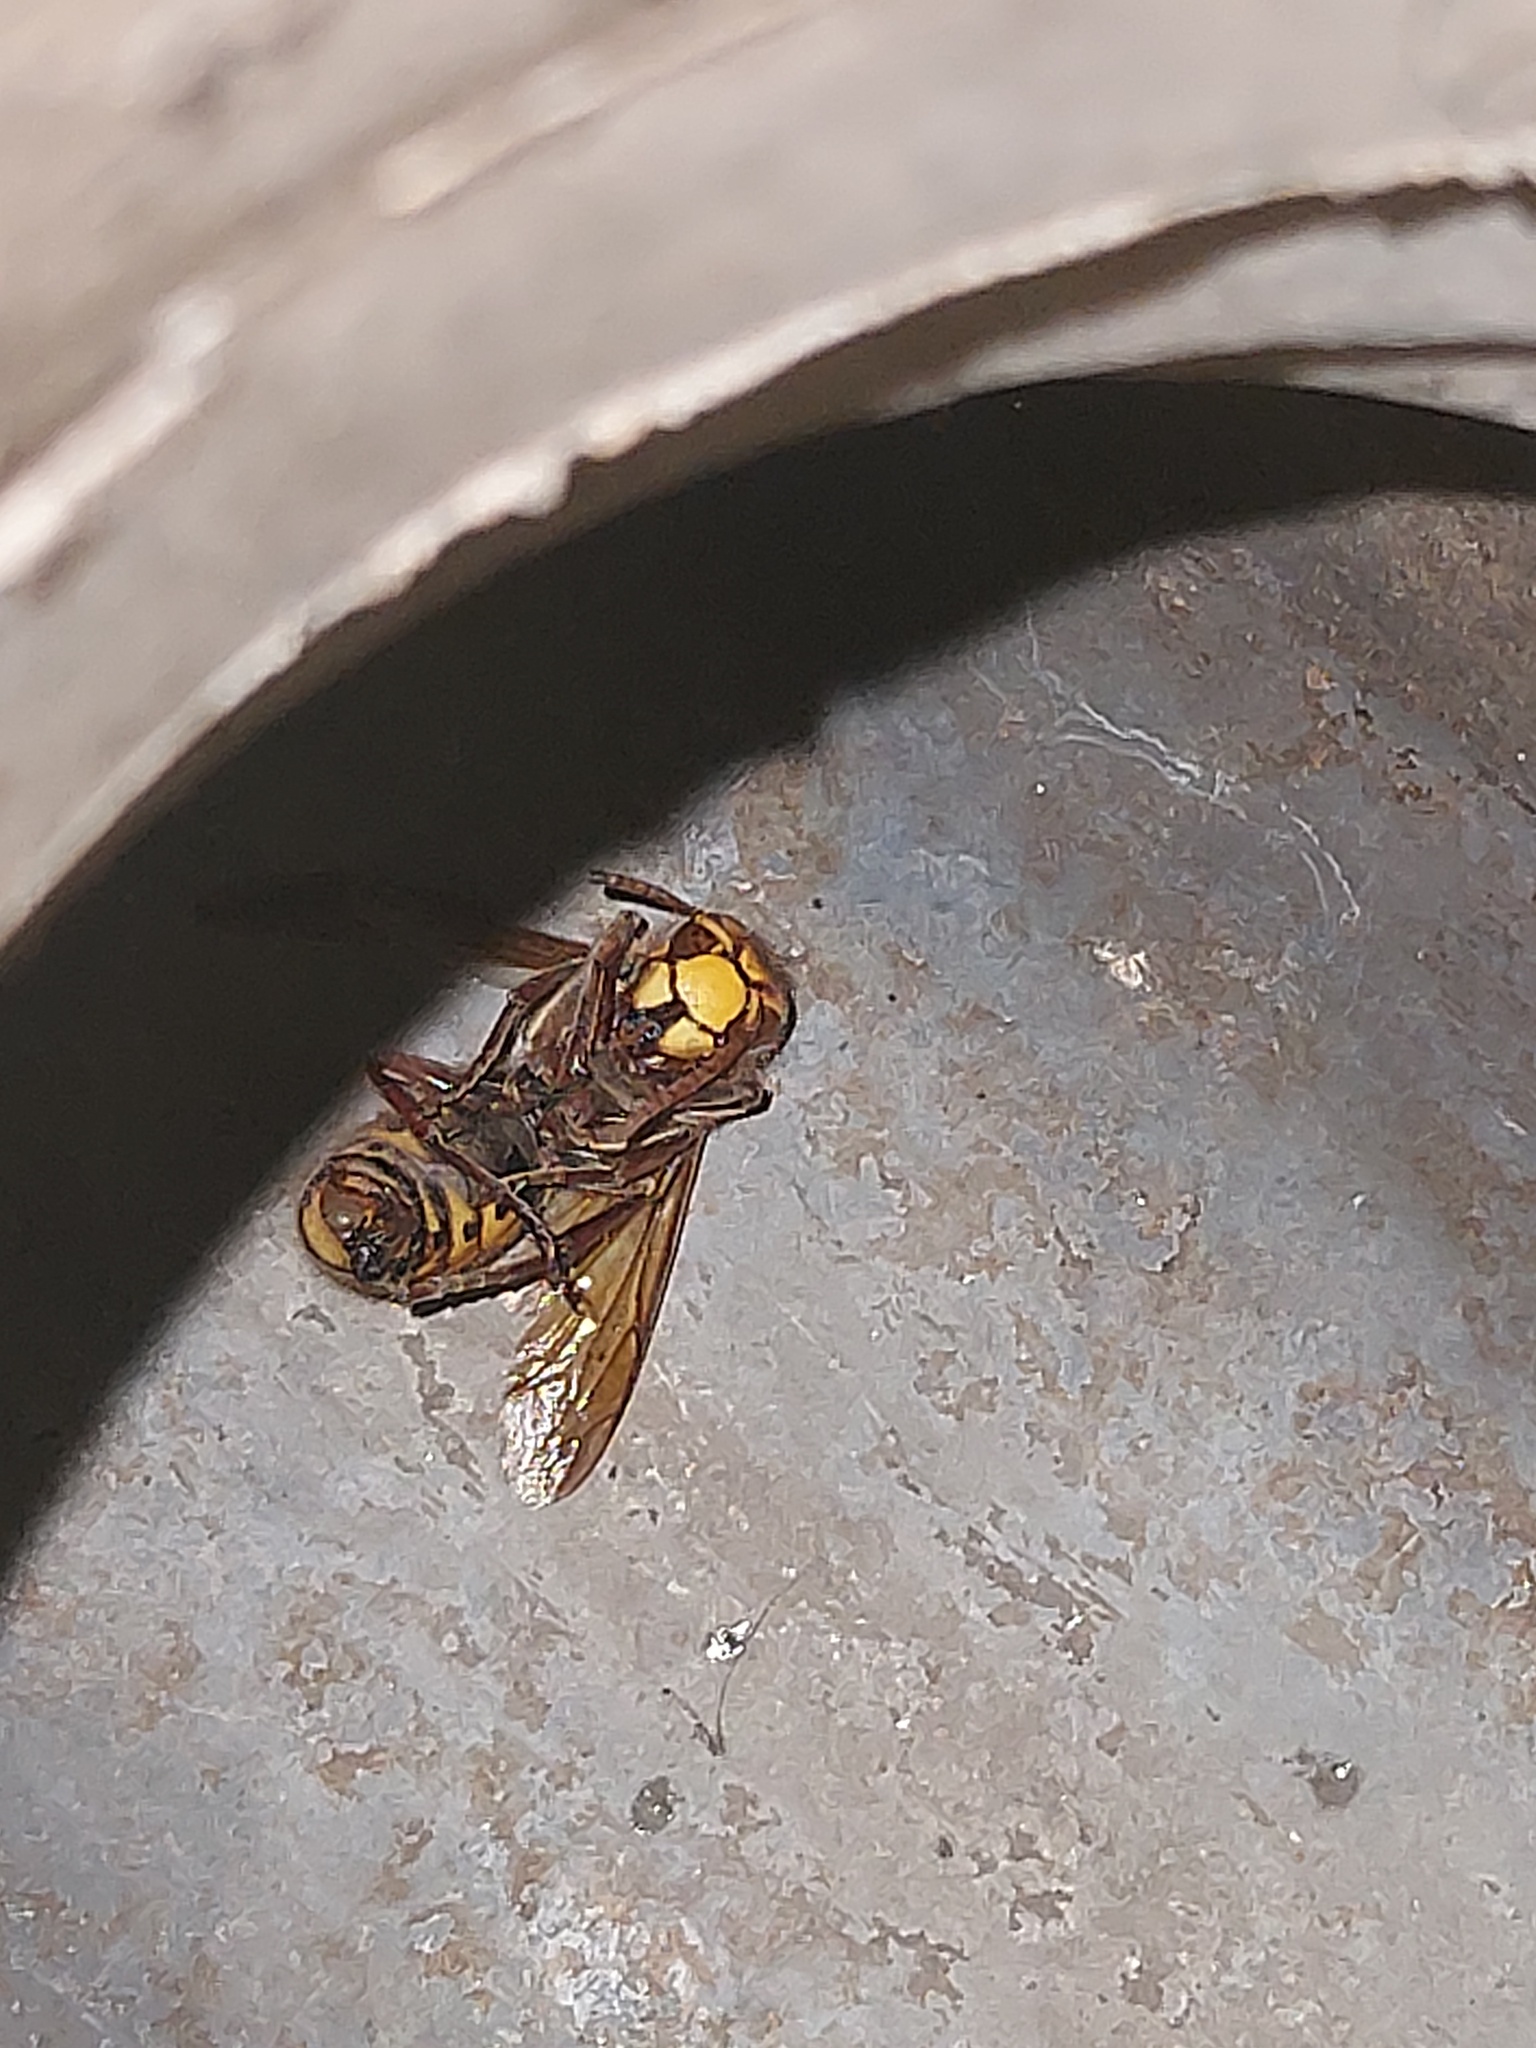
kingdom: Animalia
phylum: Arthropoda
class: Insecta
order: Hymenoptera
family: Vespidae
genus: Vespa
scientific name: Vespa crabro
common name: Hornet
